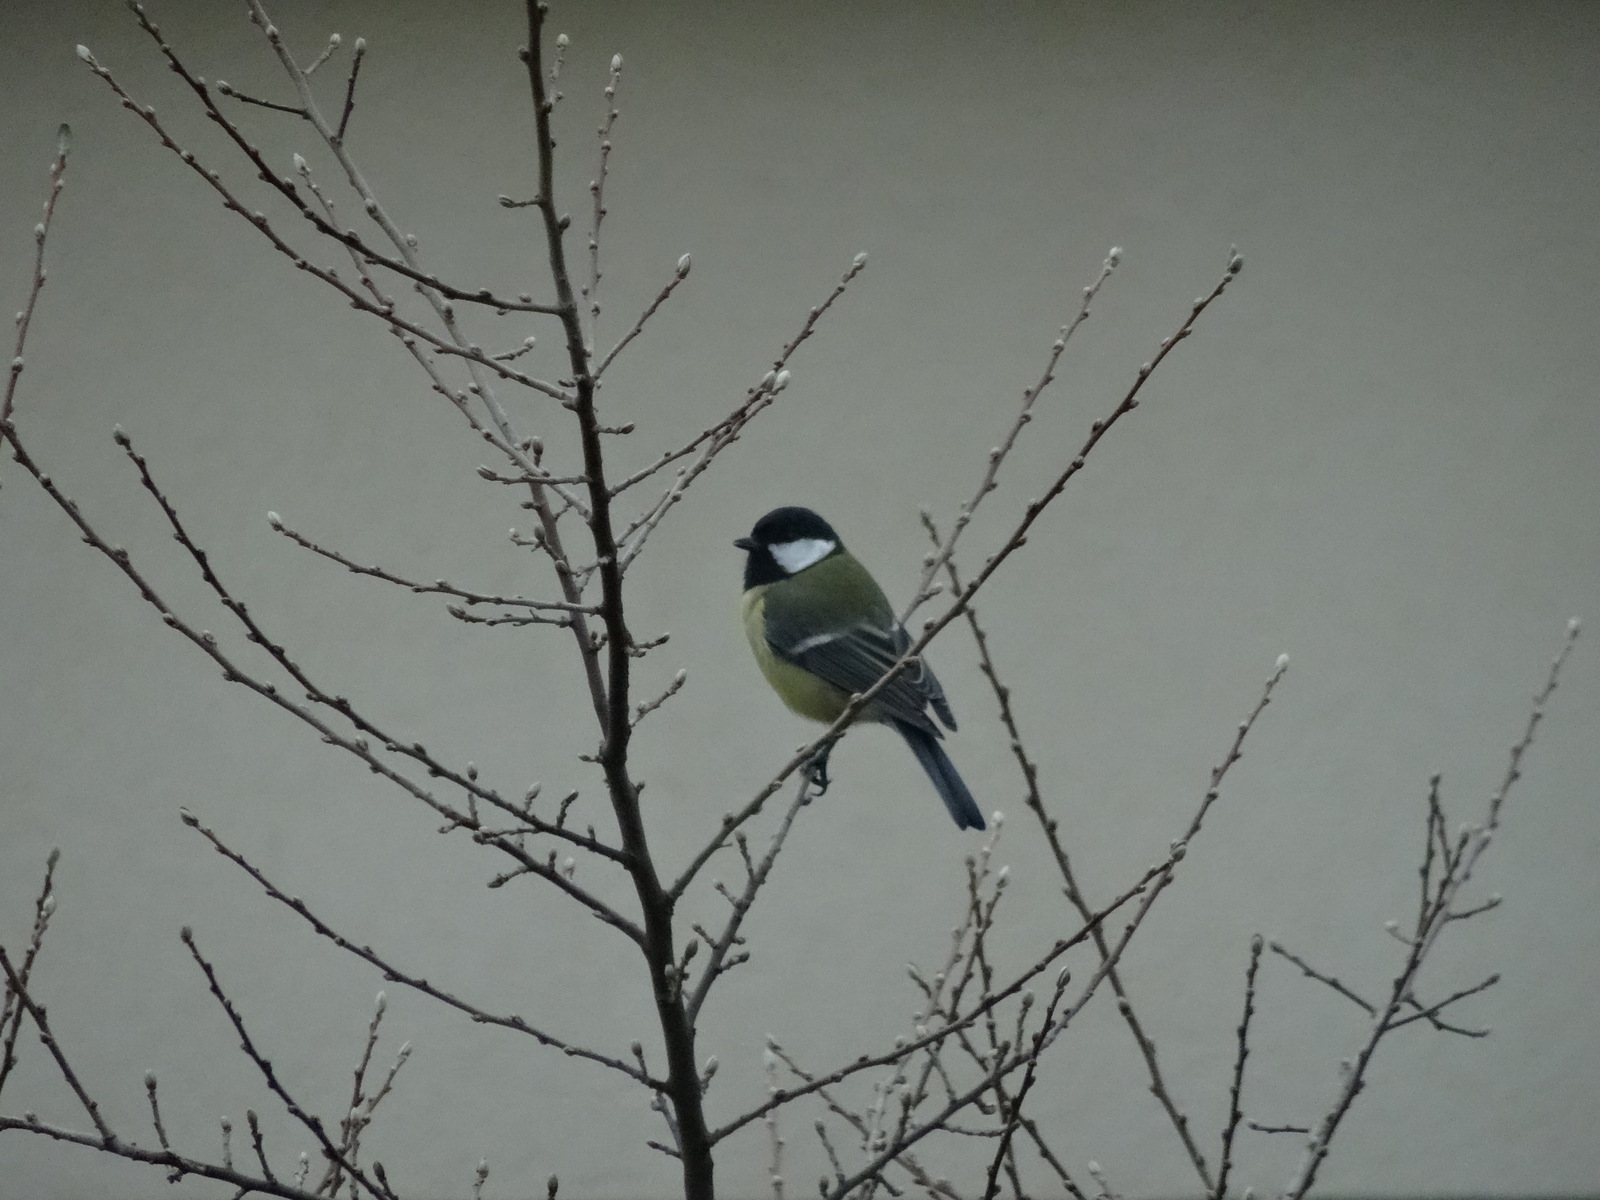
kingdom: Animalia
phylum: Chordata
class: Aves
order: Passeriformes
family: Paridae
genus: Parus
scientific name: Parus major
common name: Great tit
